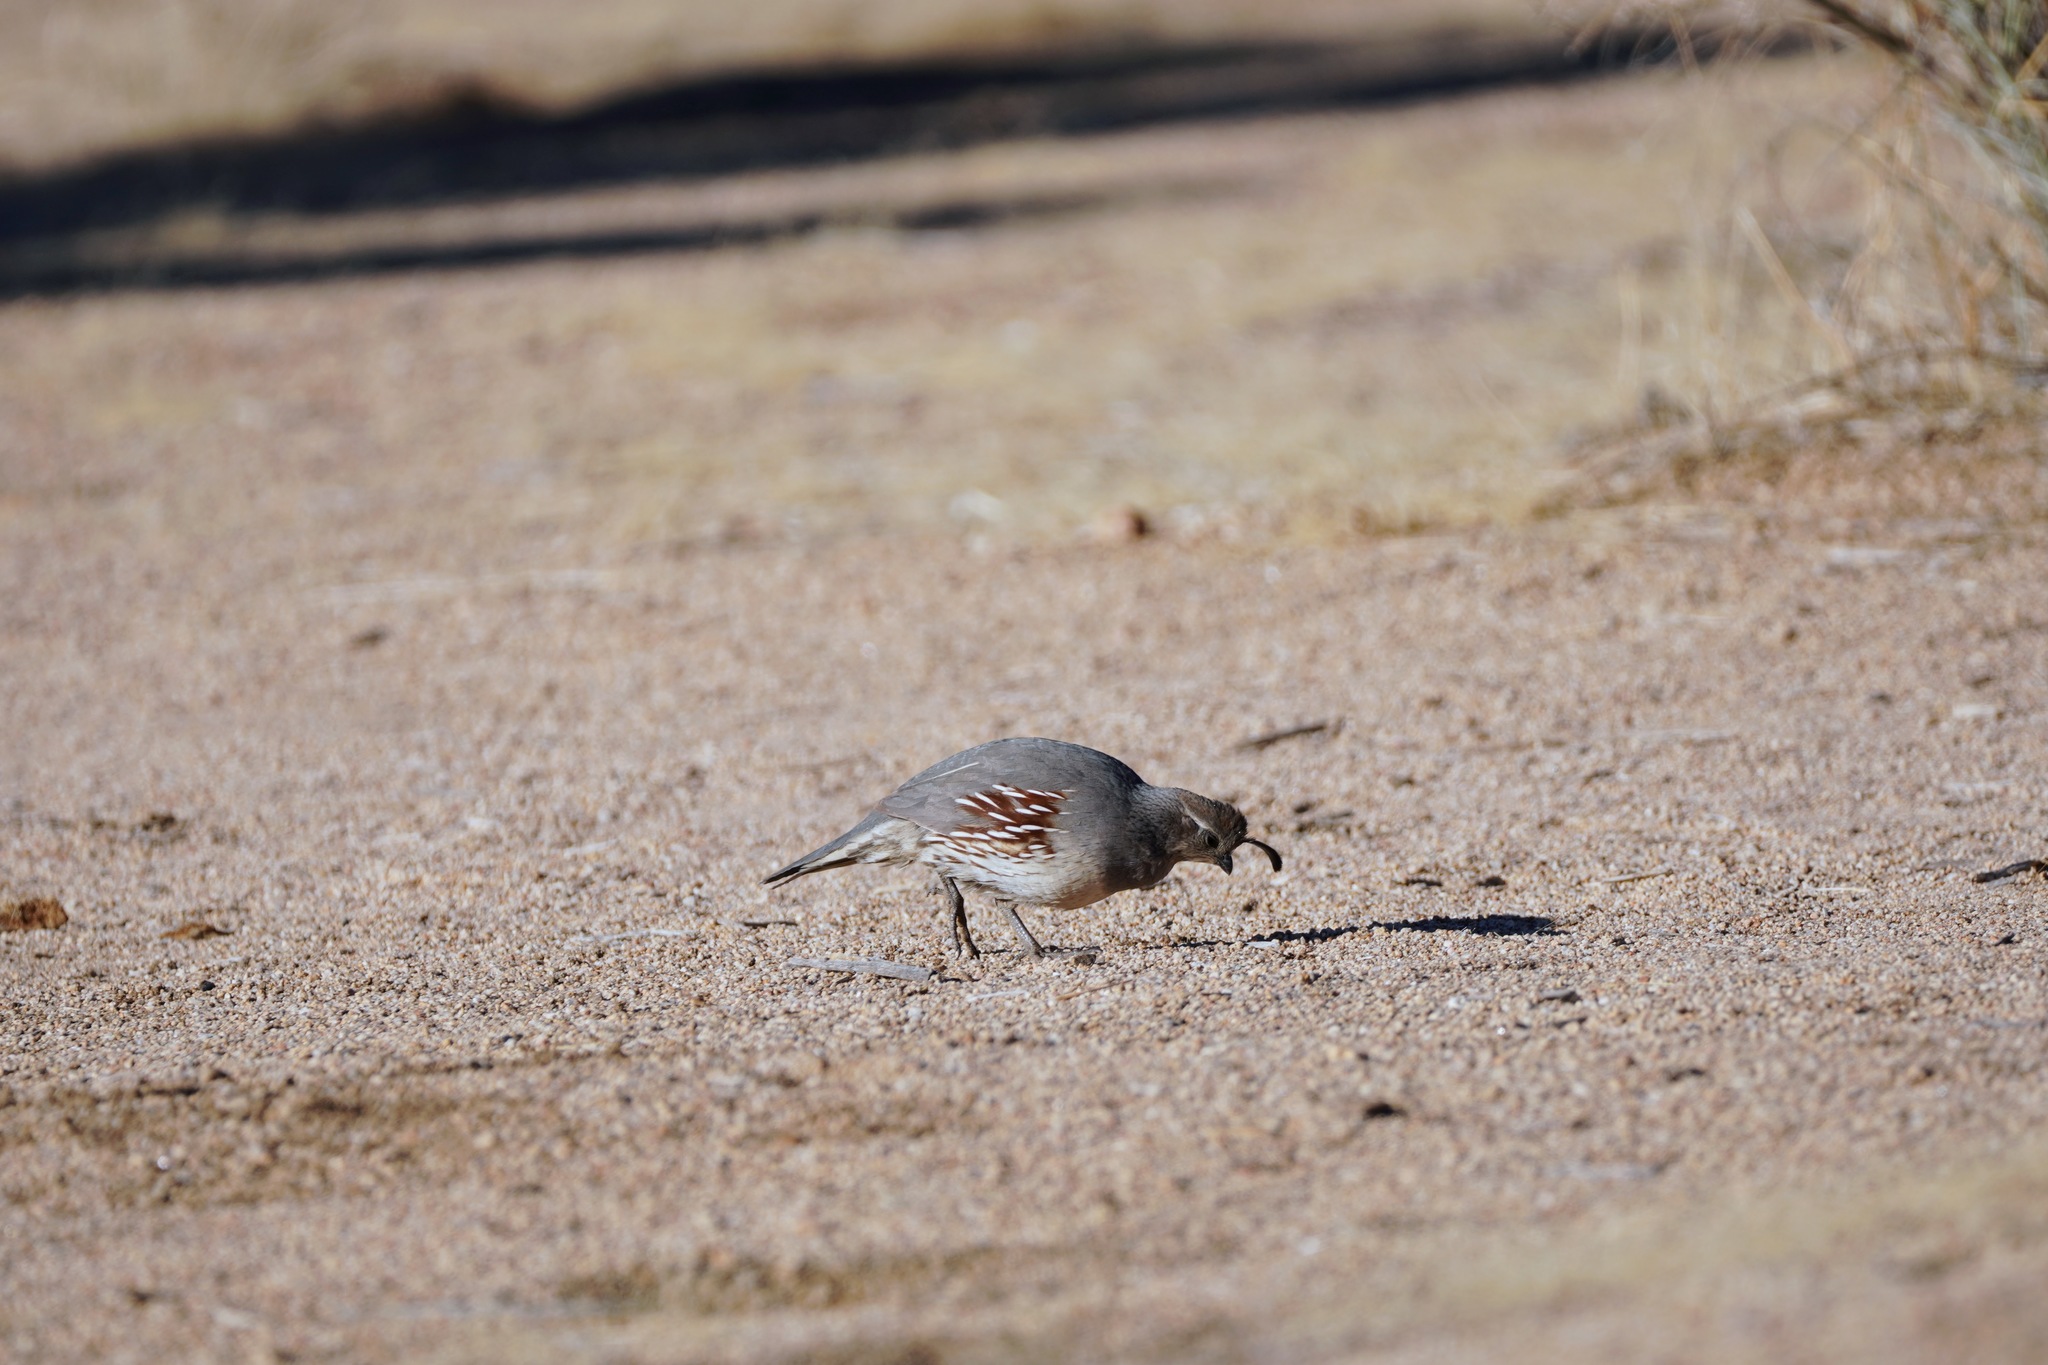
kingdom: Animalia
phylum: Chordata
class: Aves
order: Galliformes
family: Odontophoridae
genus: Callipepla
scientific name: Callipepla gambelii
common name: Gambel's quail
